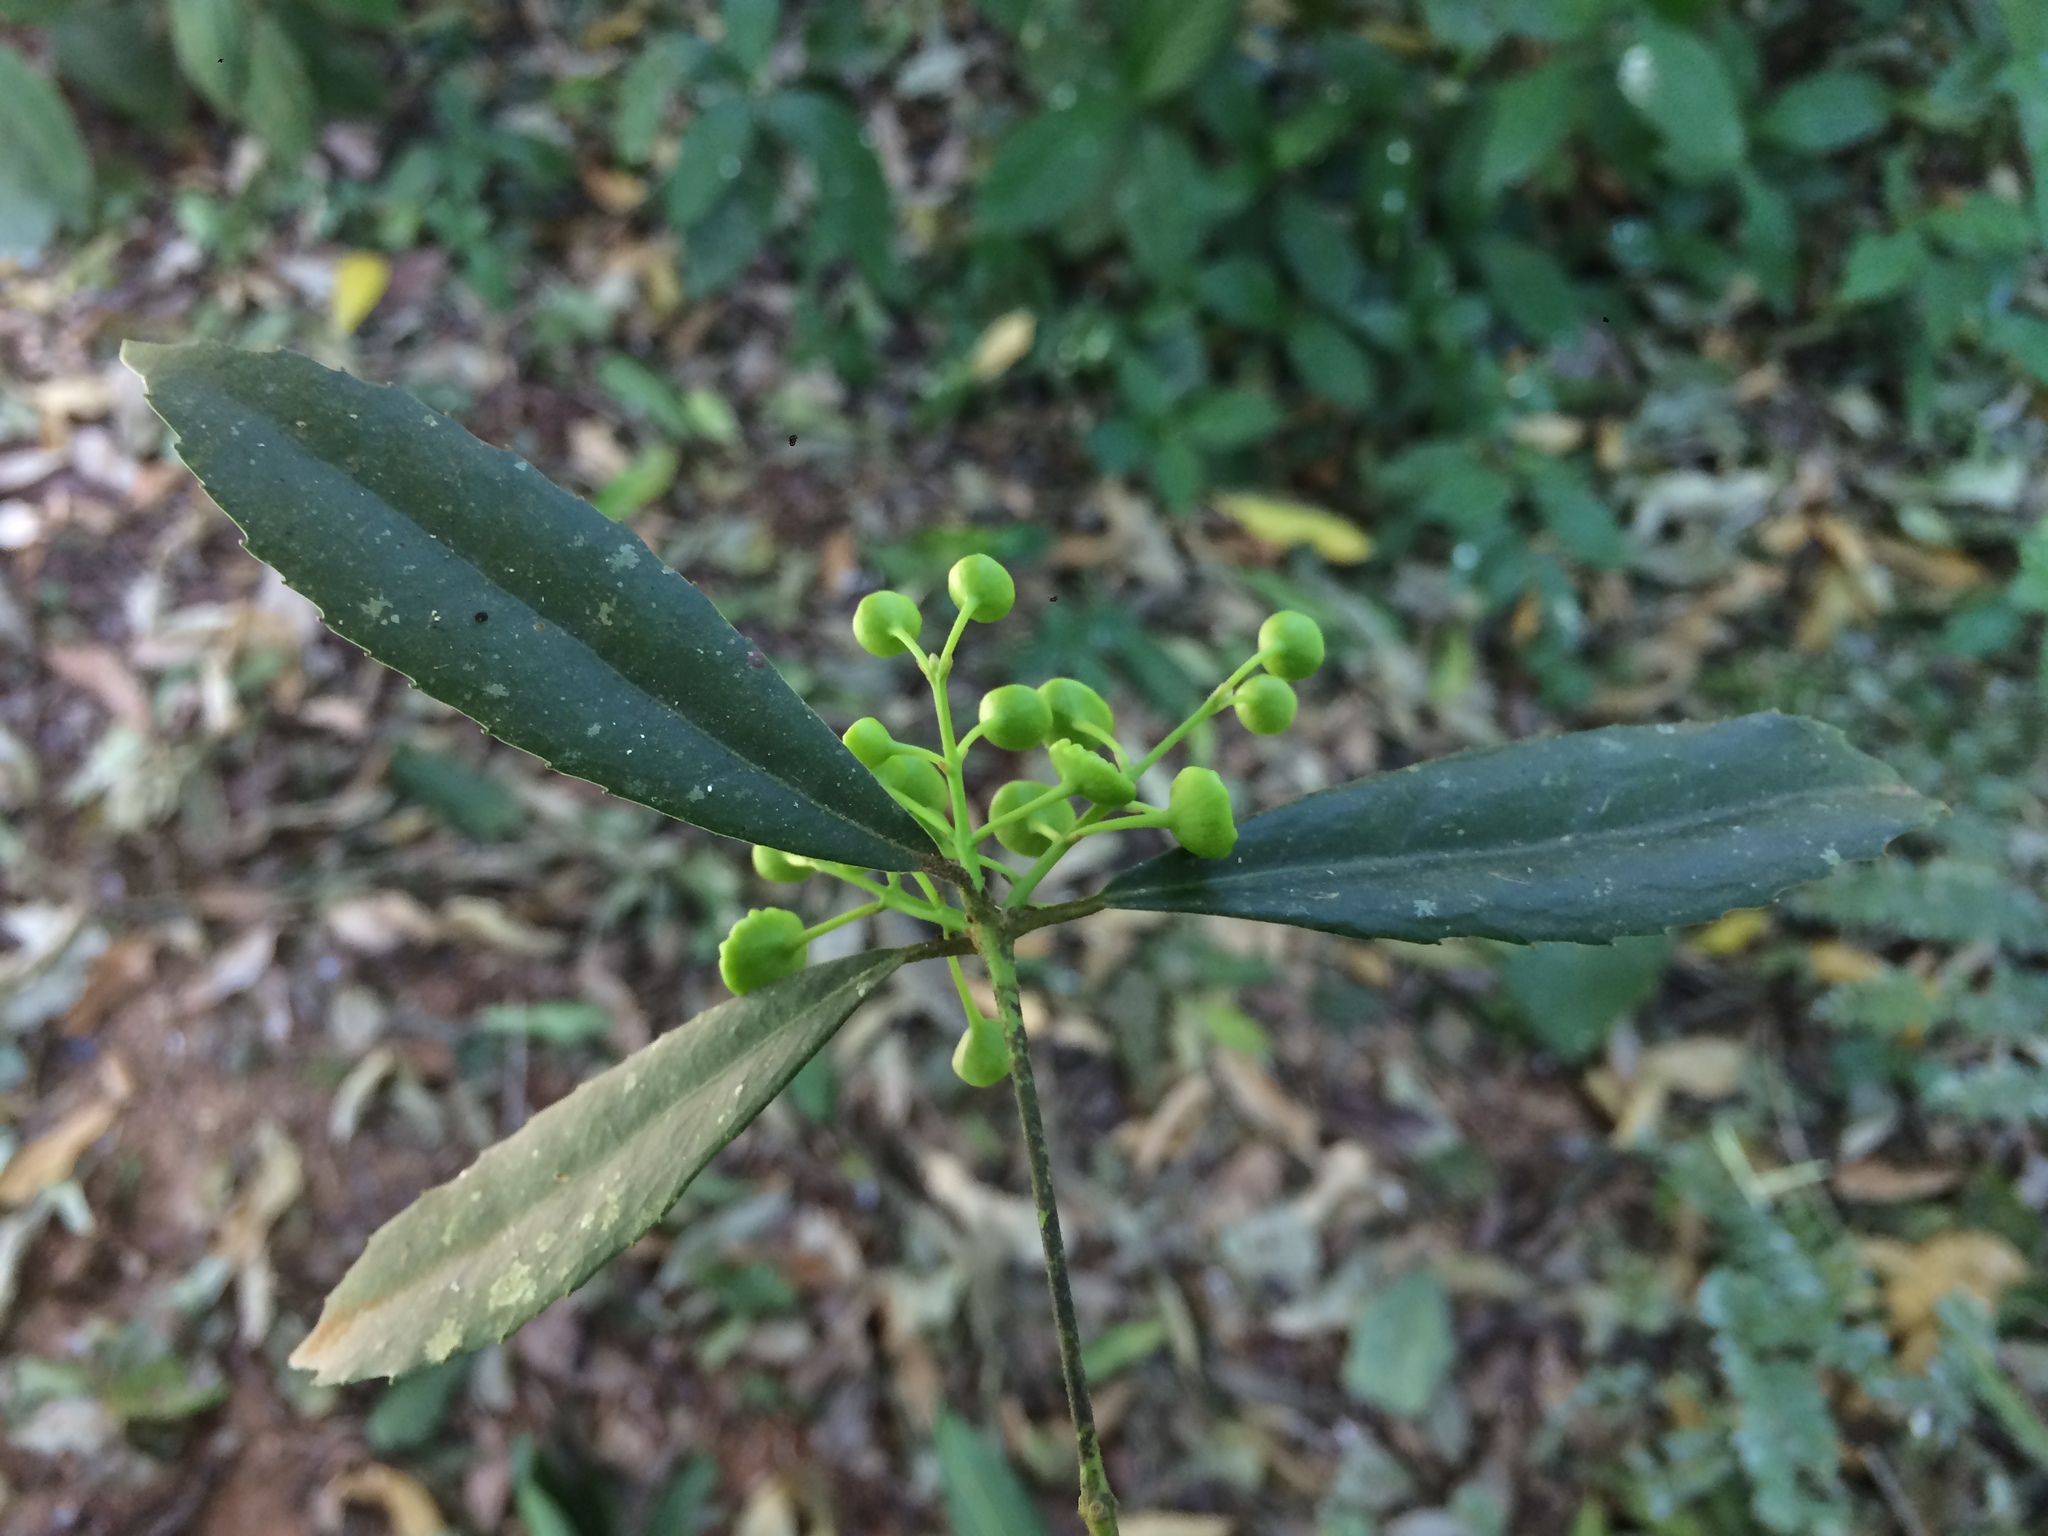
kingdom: Plantae
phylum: Tracheophyta
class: Magnoliopsida
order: Laurales
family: Monimiaceae
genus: Hennecartia
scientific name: Hennecartia omphalandra
